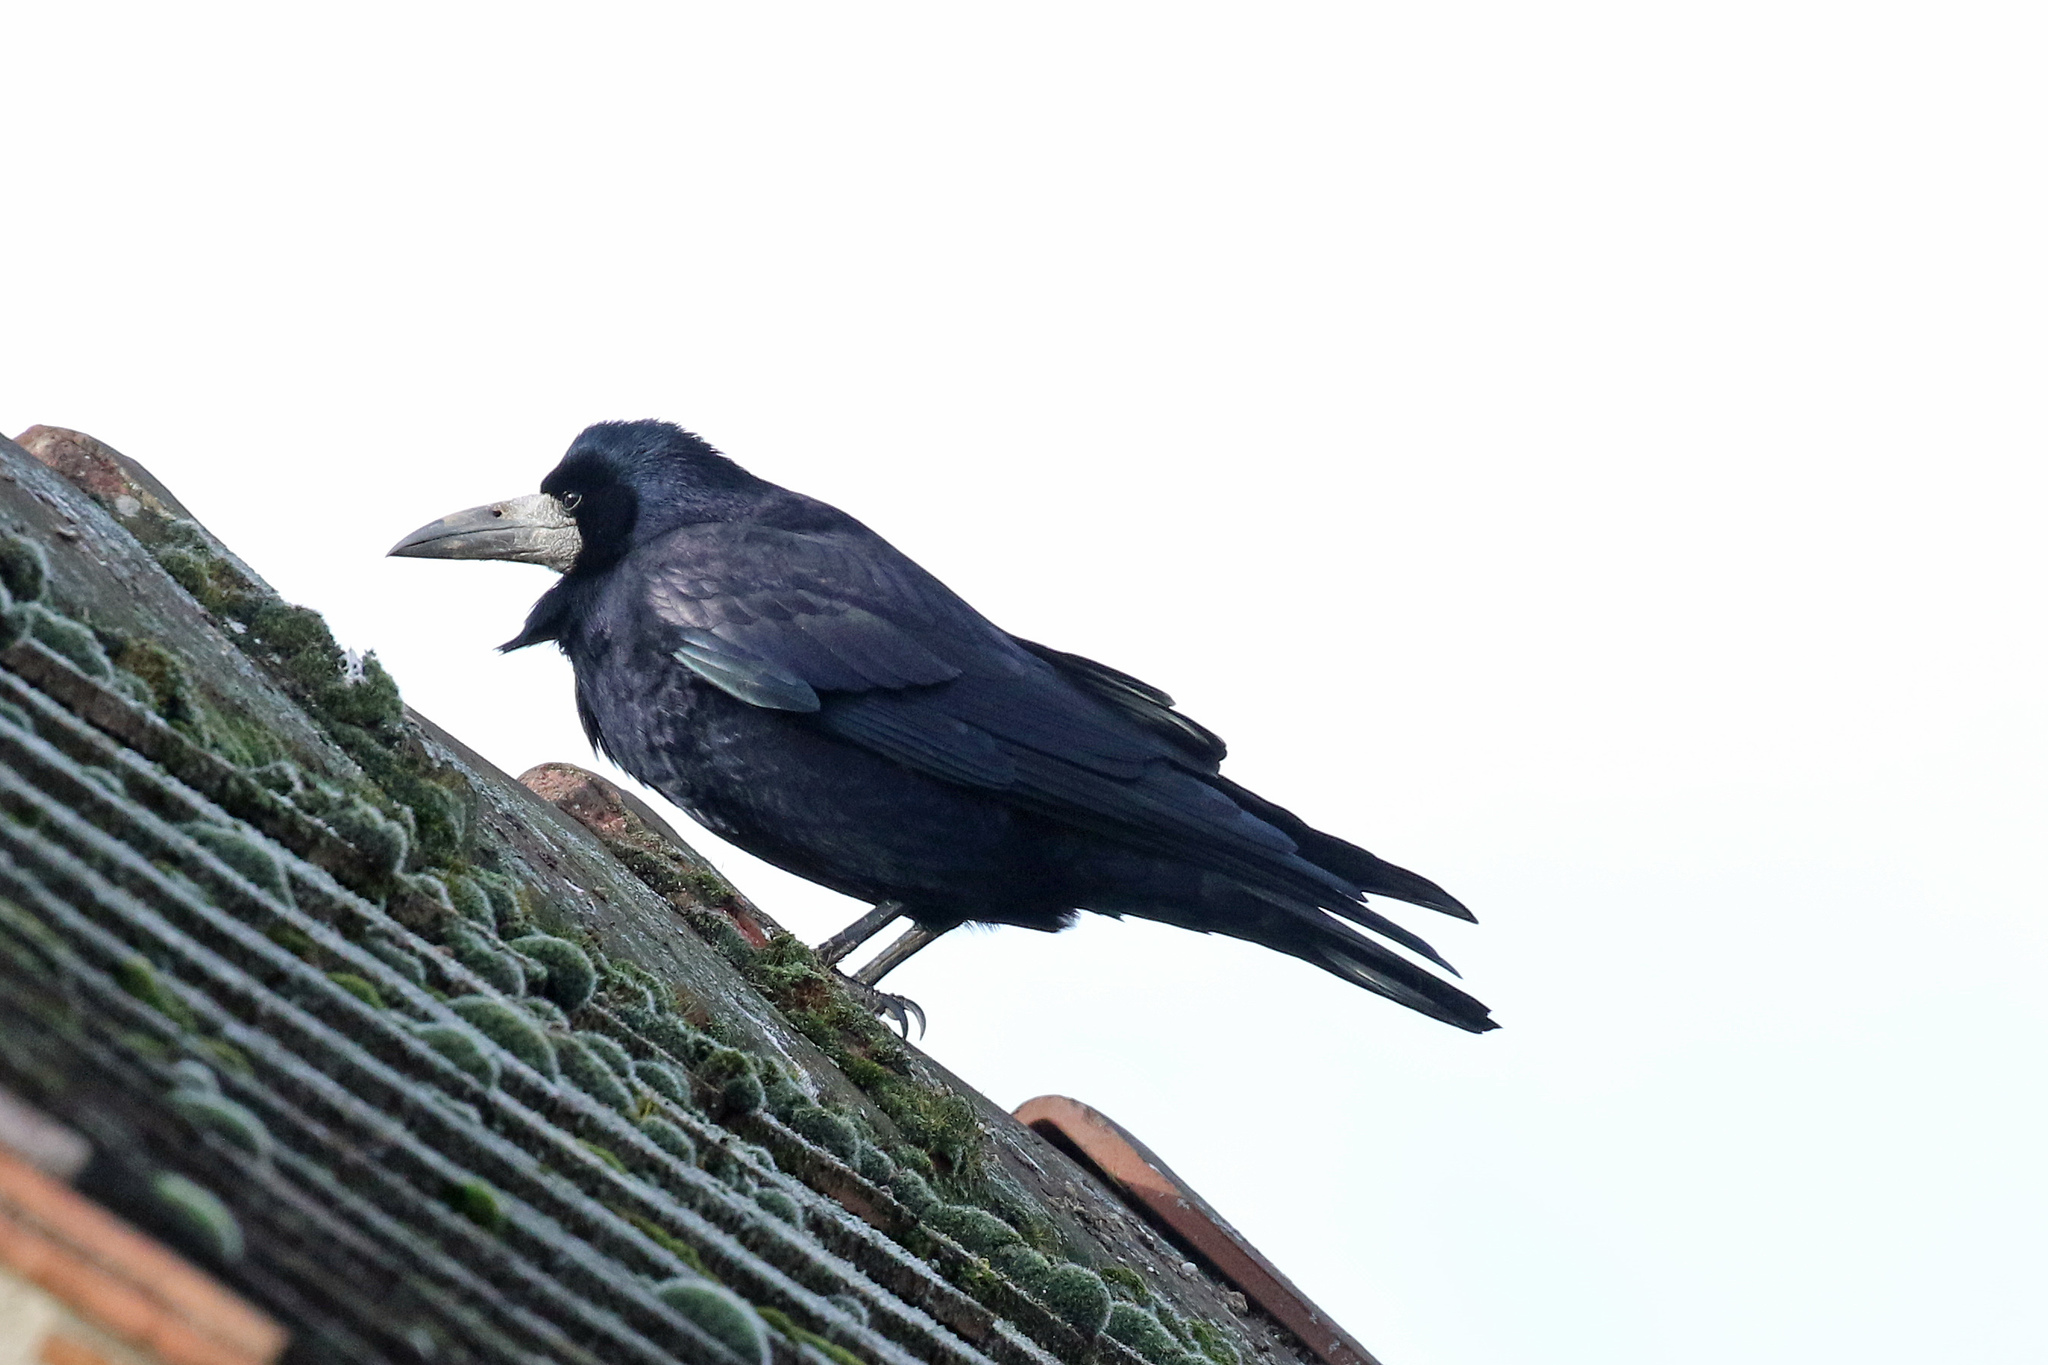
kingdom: Animalia
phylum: Chordata
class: Aves
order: Passeriformes
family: Corvidae
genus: Corvus
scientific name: Corvus frugilegus
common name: Rook
